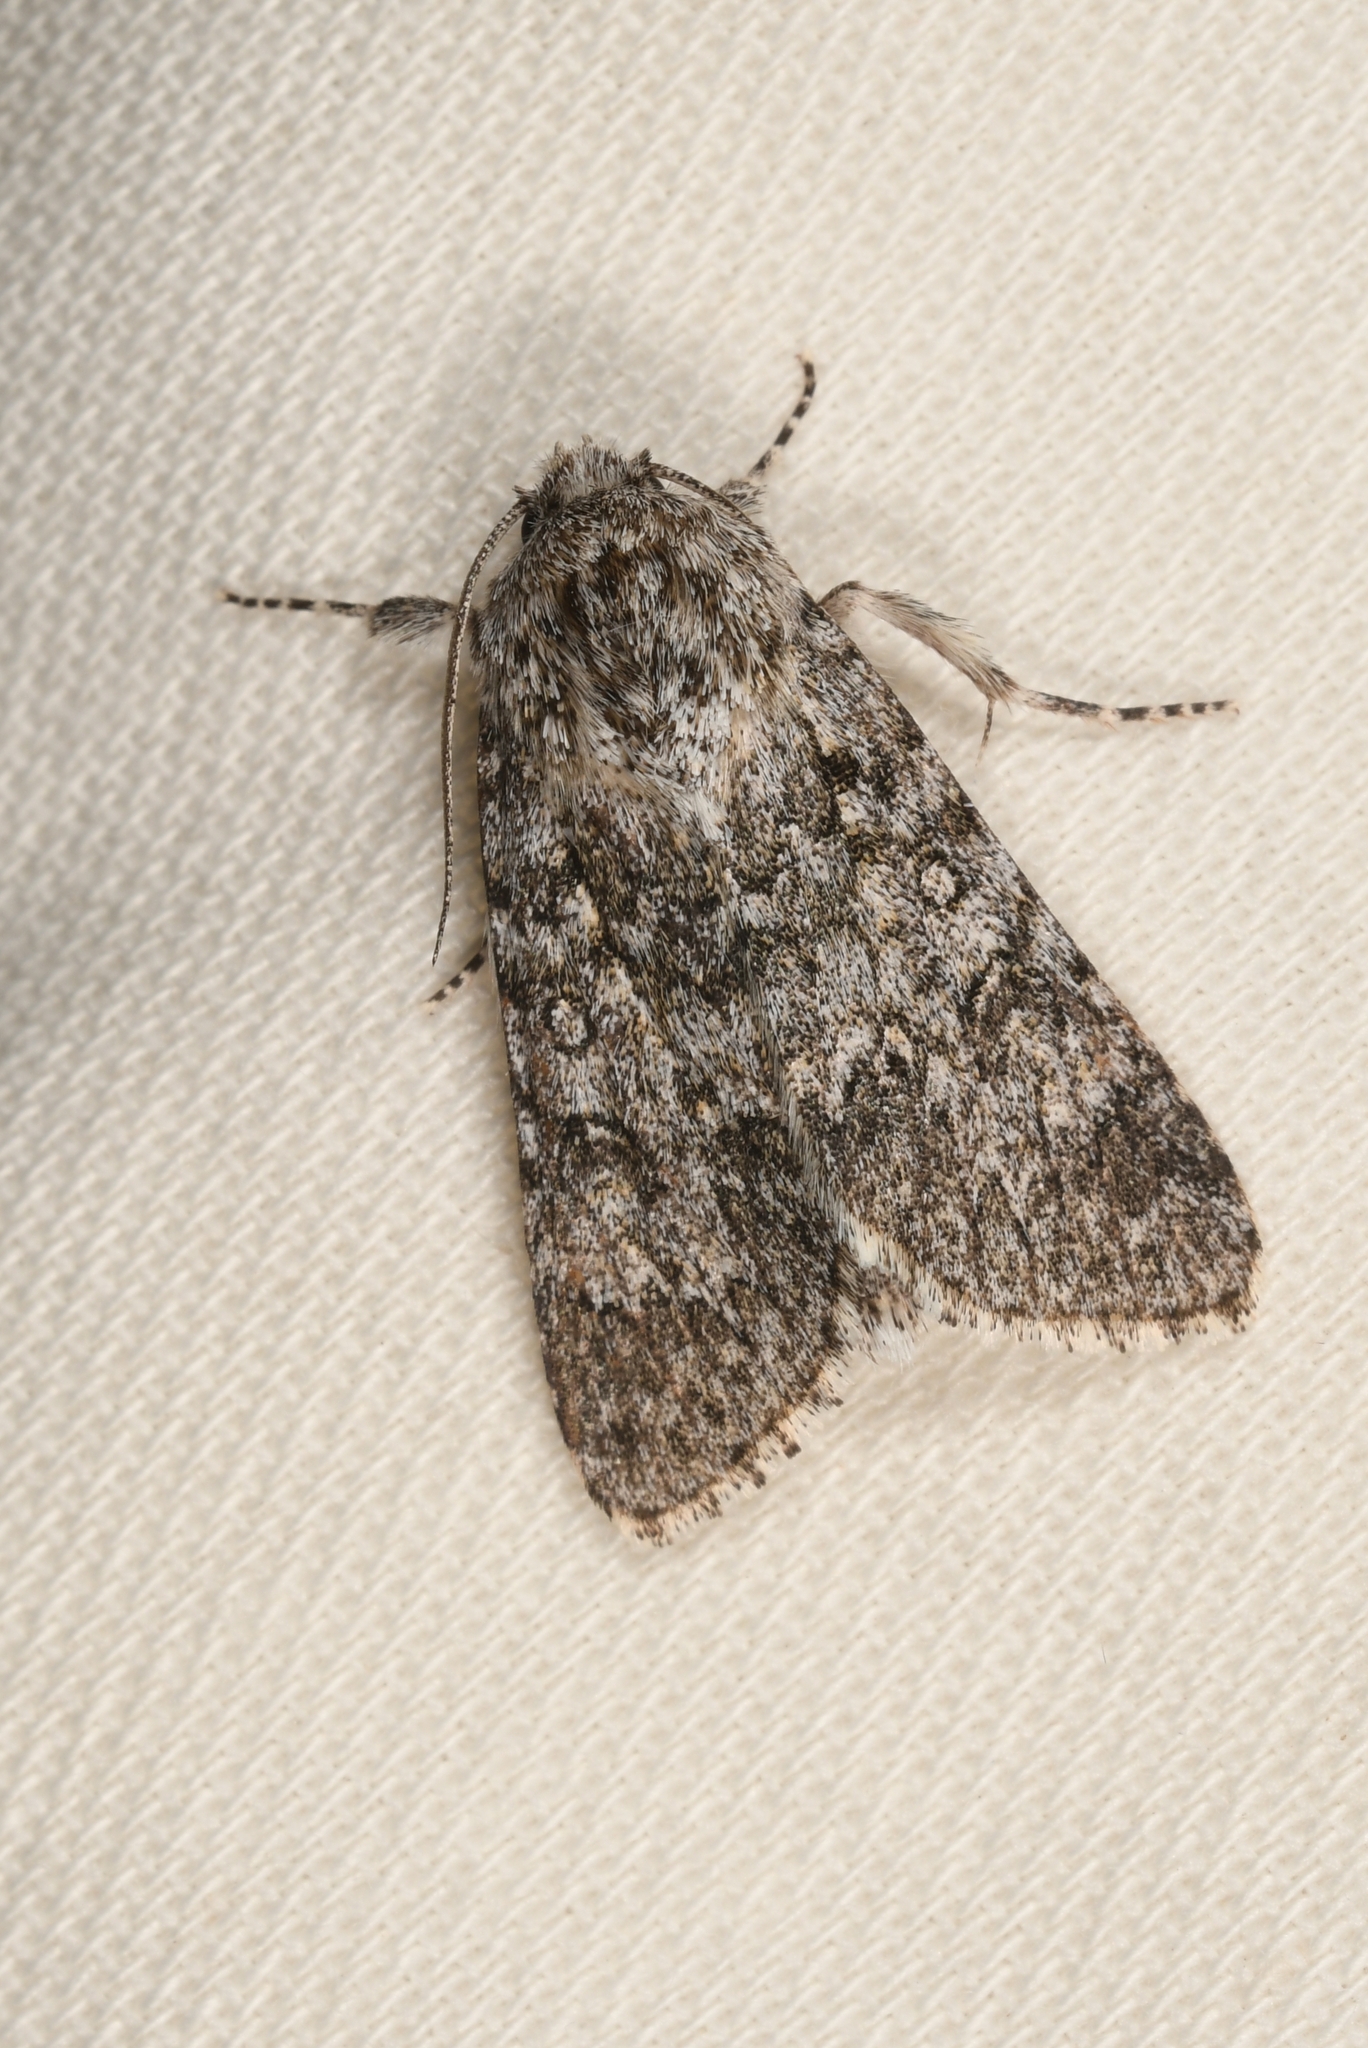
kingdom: Animalia
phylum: Arthropoda
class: Insecta
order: Lepidoptera
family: Noctuidae
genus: Acronicta
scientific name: Acronicta megacephala
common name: Poplar grey
